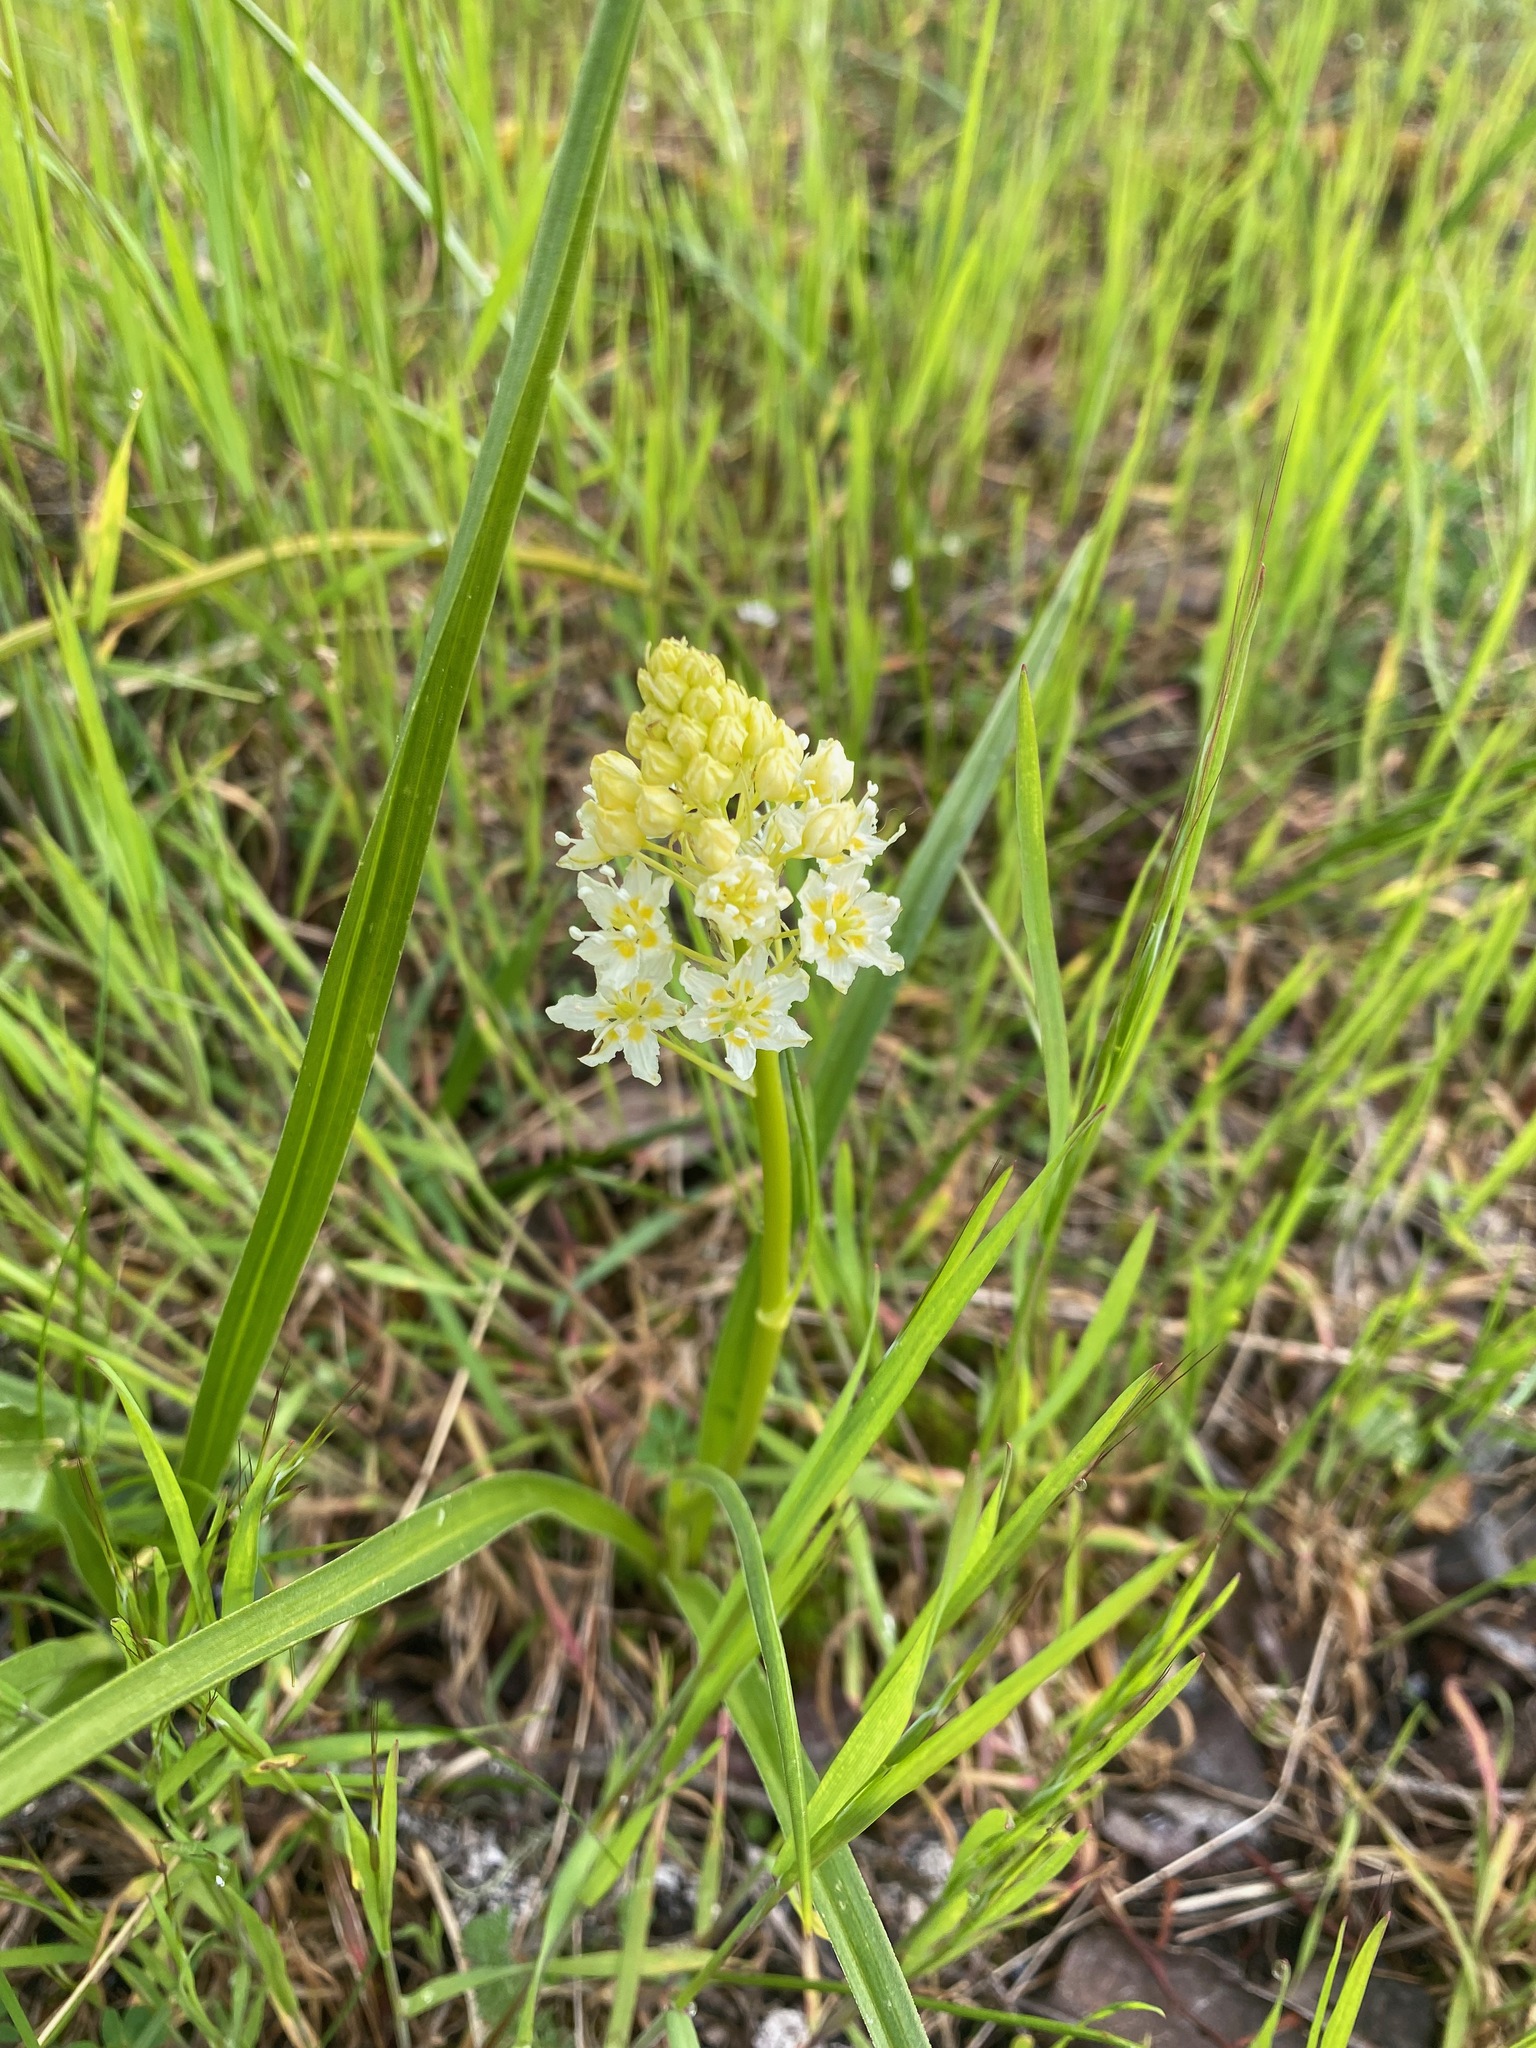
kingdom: Plantae
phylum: Tracheophyta
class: Liliopsida
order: Liliales
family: Melanthiaceae
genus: Toxicoscordion
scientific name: Toxicoscordion venenosum
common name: Meadow death camas
